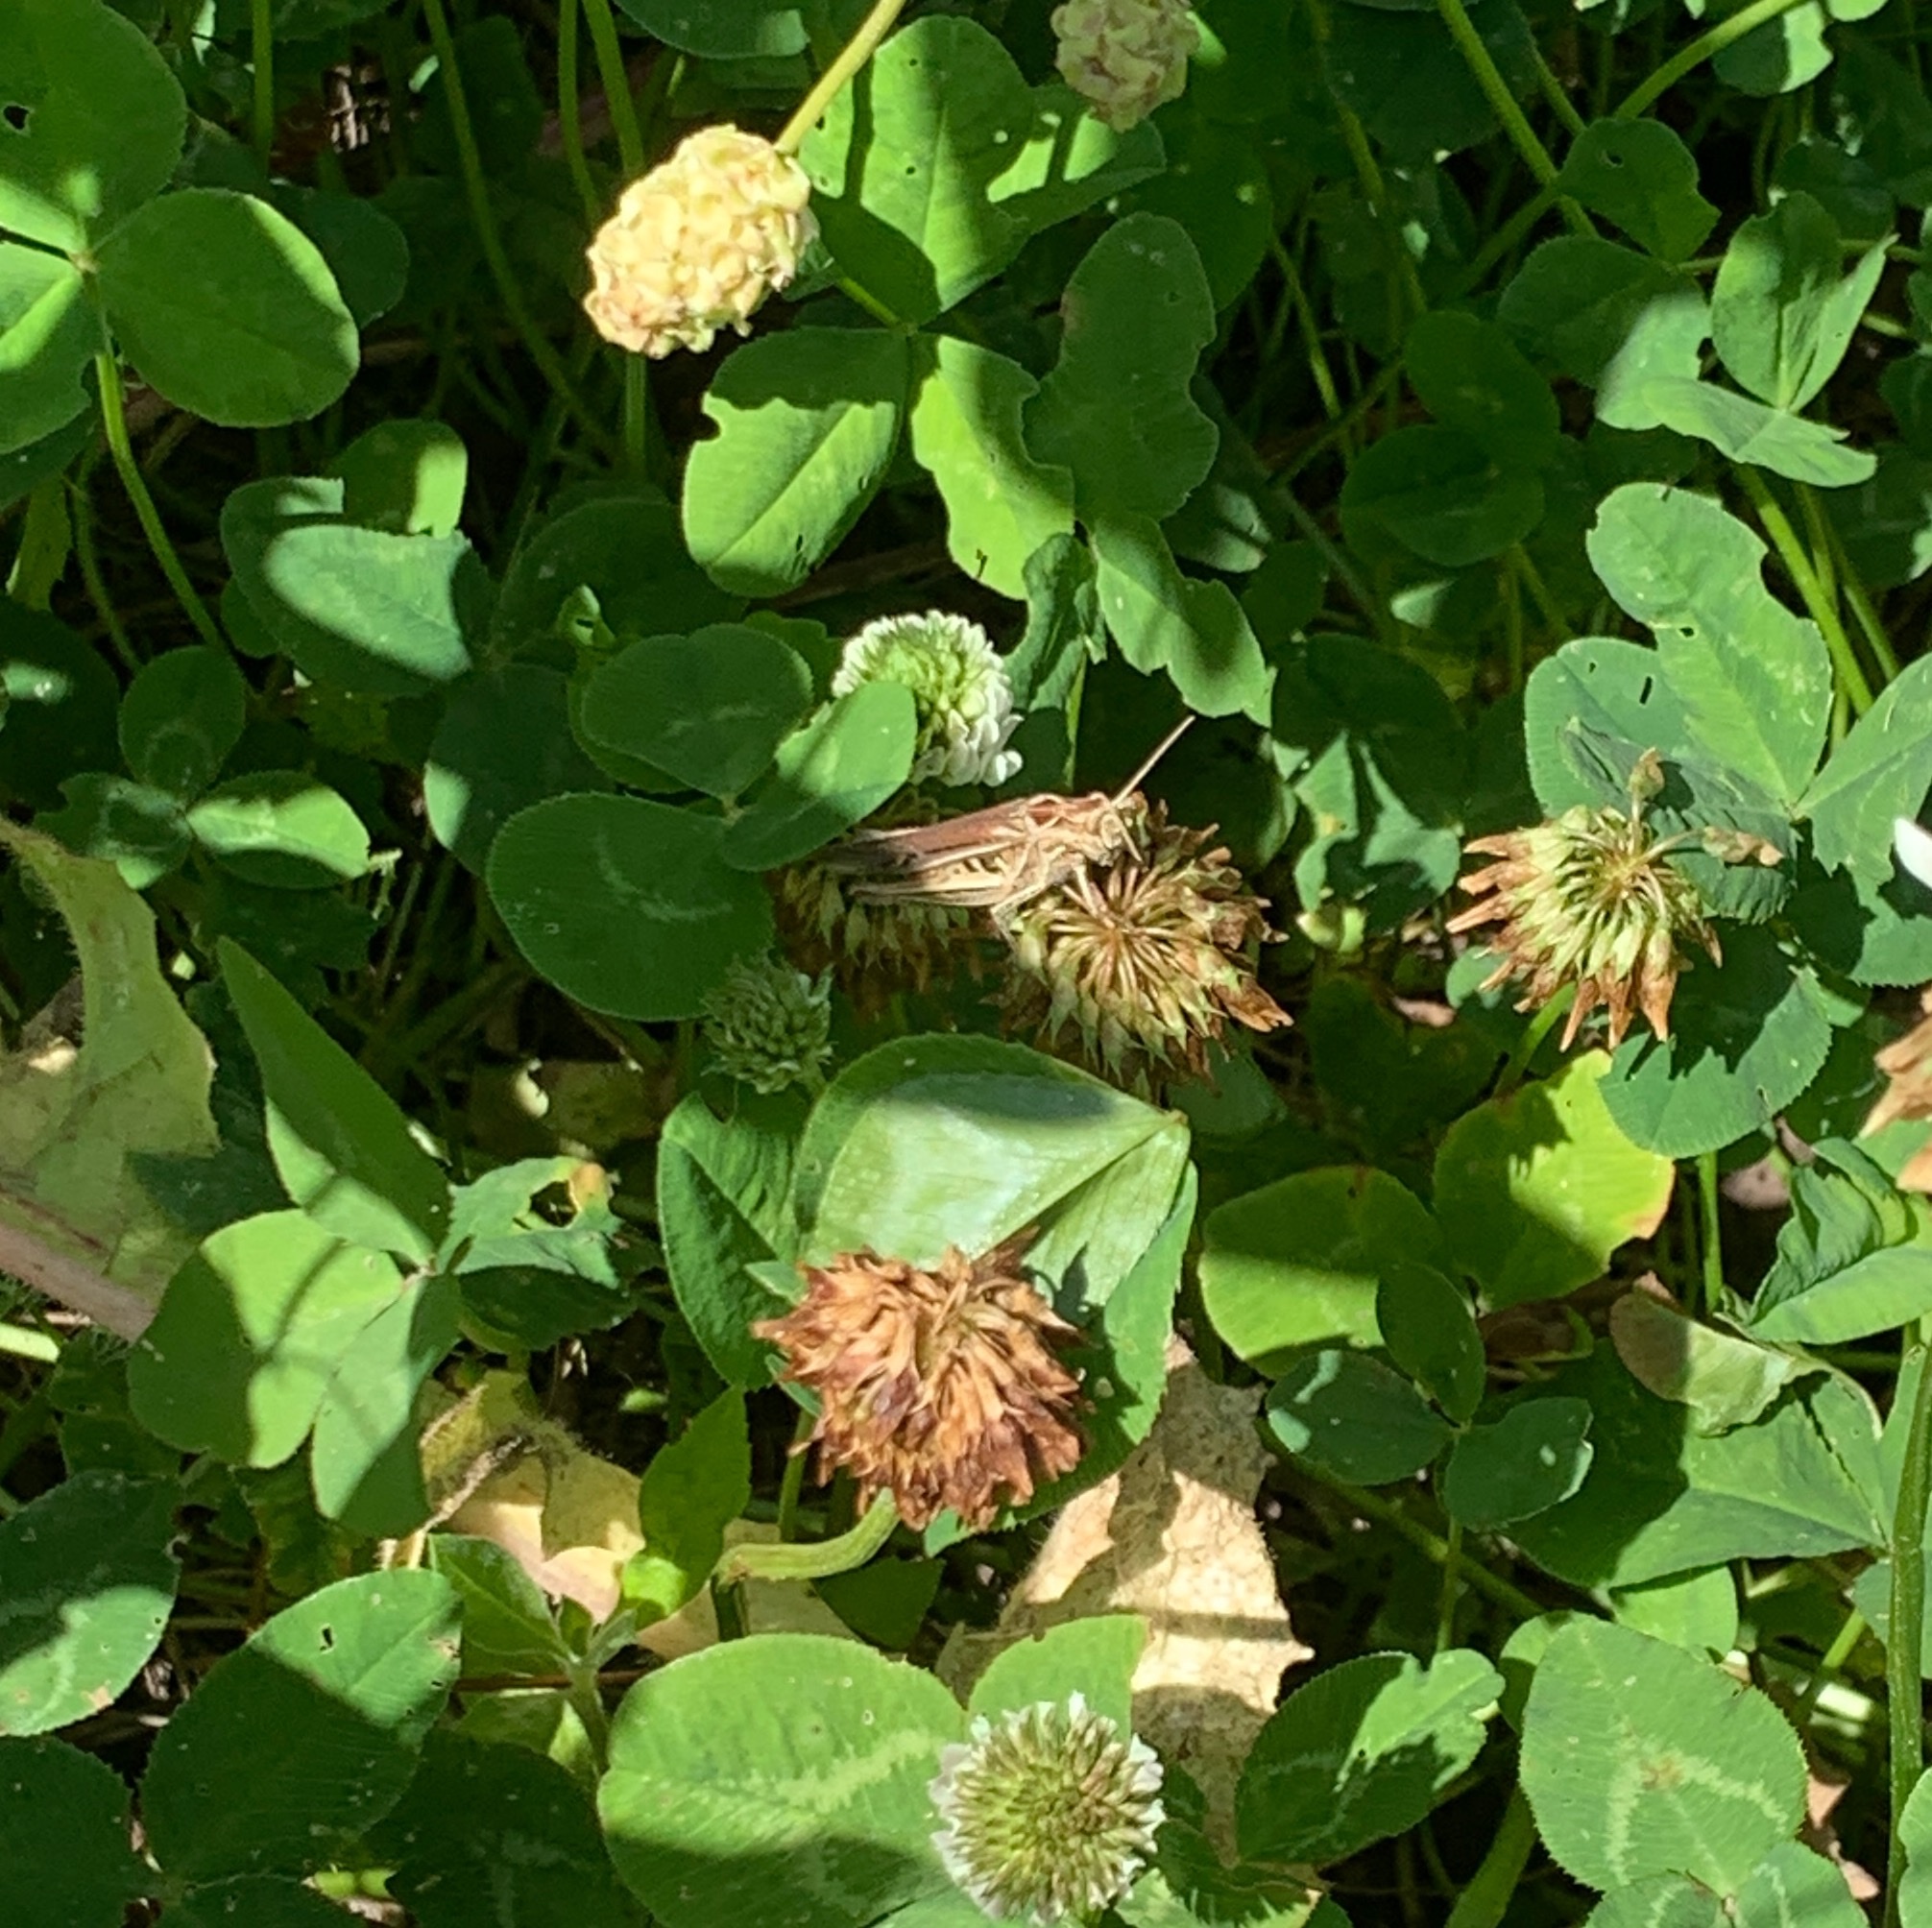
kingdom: Animalia
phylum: Arthropoda
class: Insecta
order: Orthoptera
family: Acrididae
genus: Chorthippus
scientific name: Chorthippus brunneus
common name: Field grasshopper
